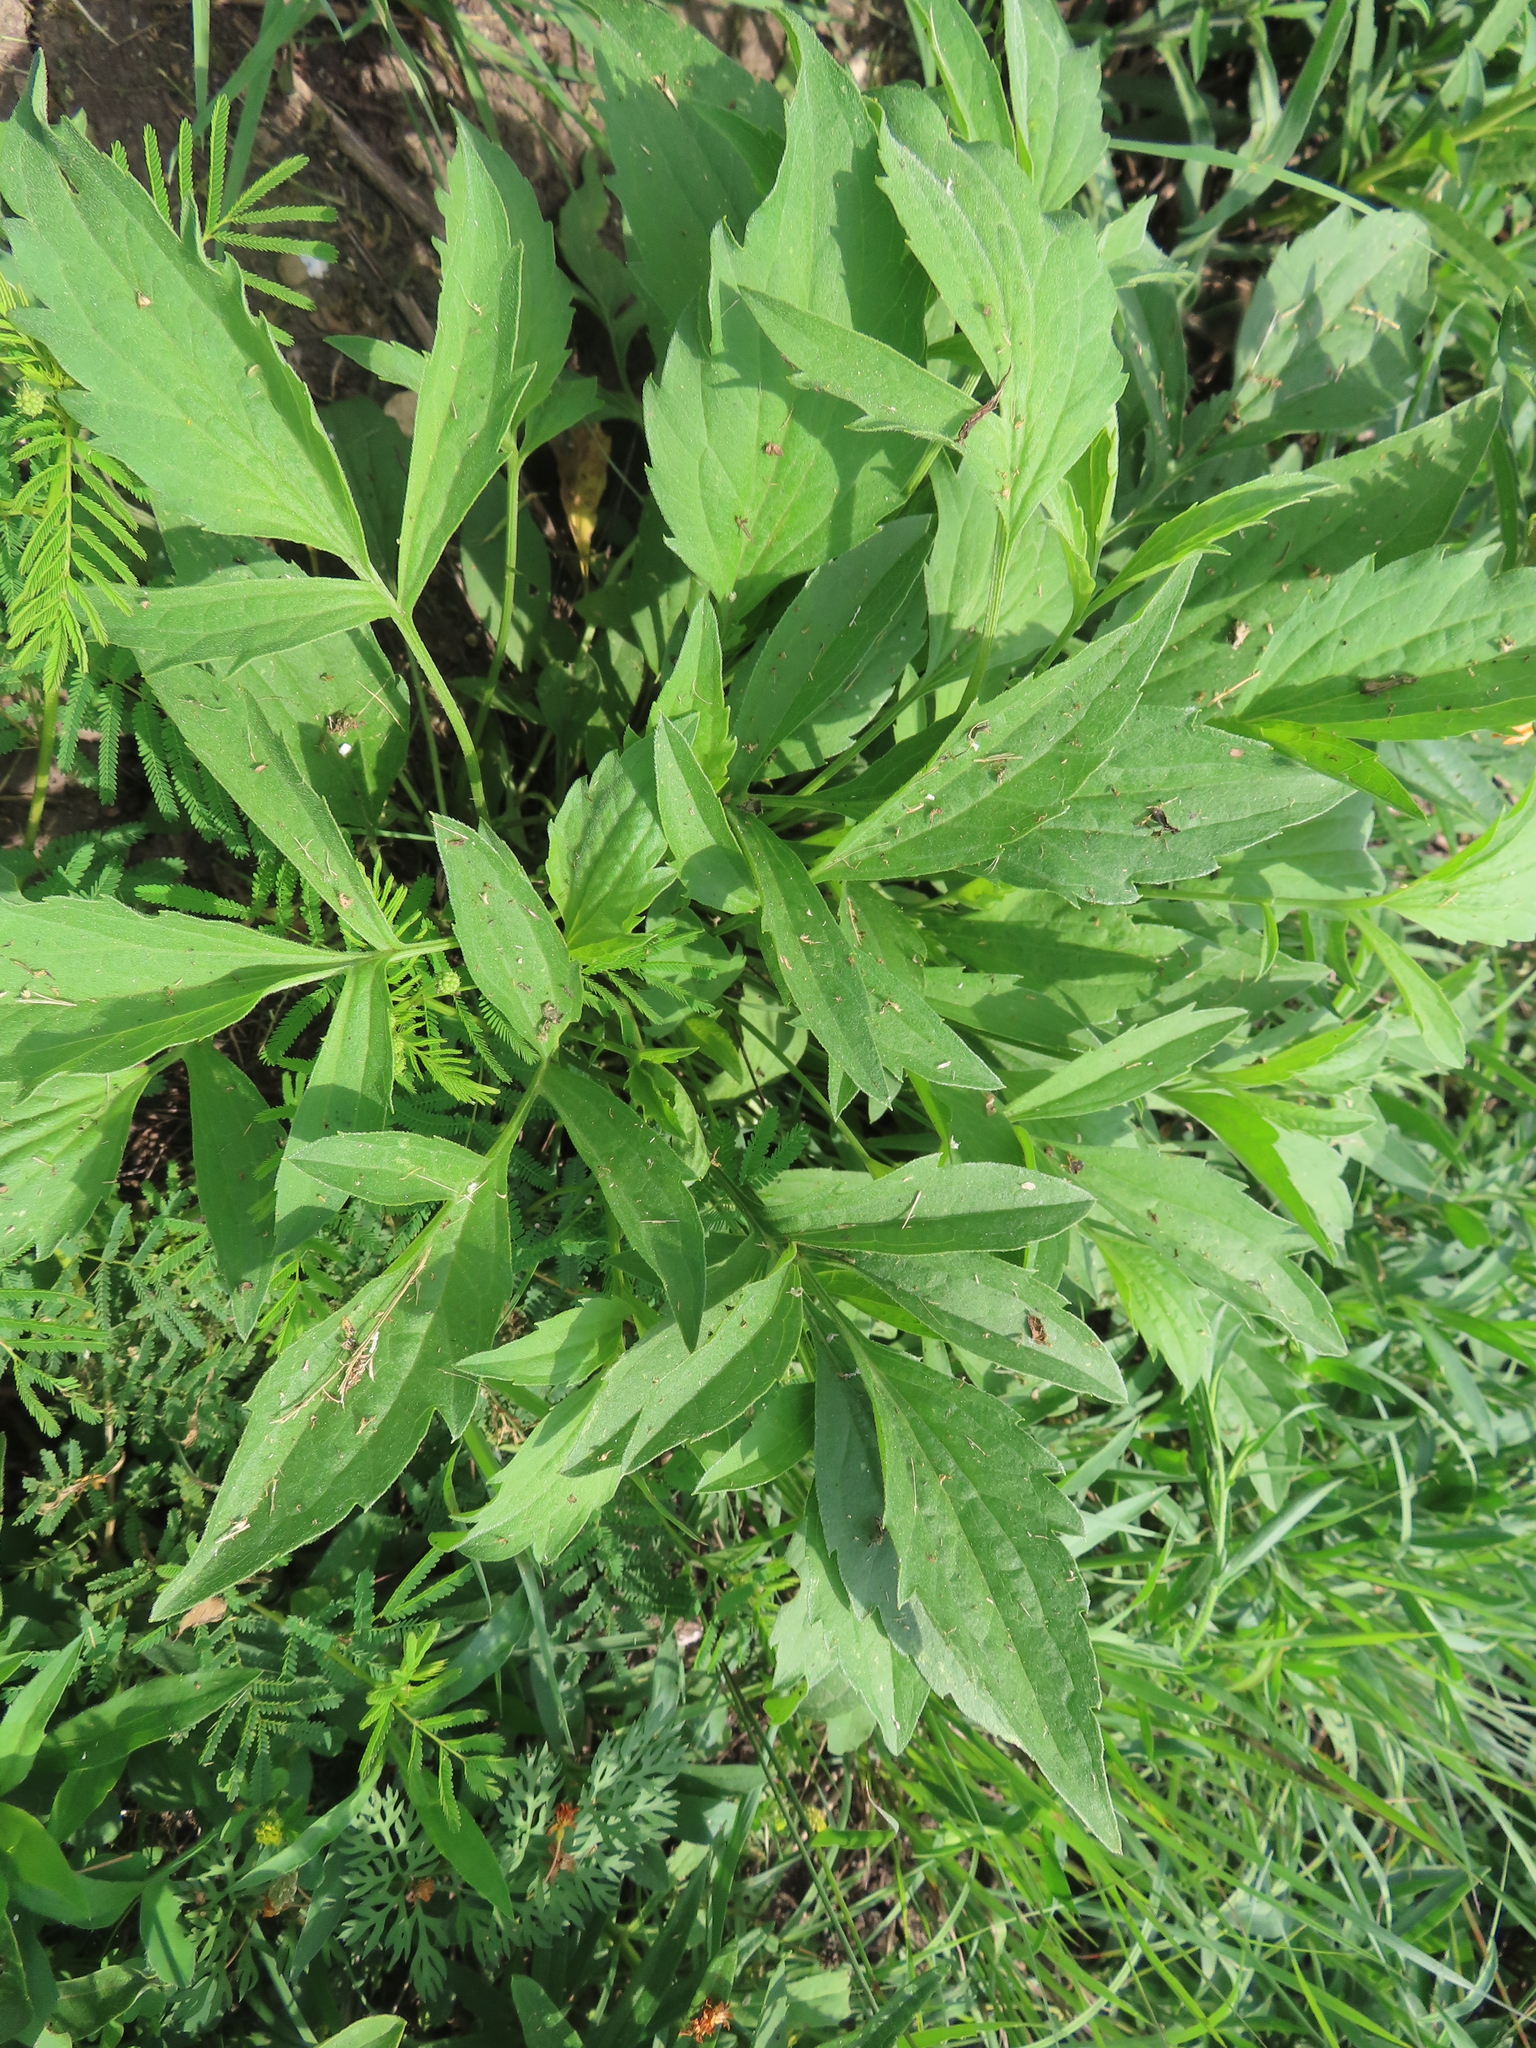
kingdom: Plantae
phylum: Tracheophyta
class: Magnoliopsida
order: Asterales
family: Asteraceae
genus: Ratibida
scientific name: Ratibida pinnata
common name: Drooping prairie-coneflower
